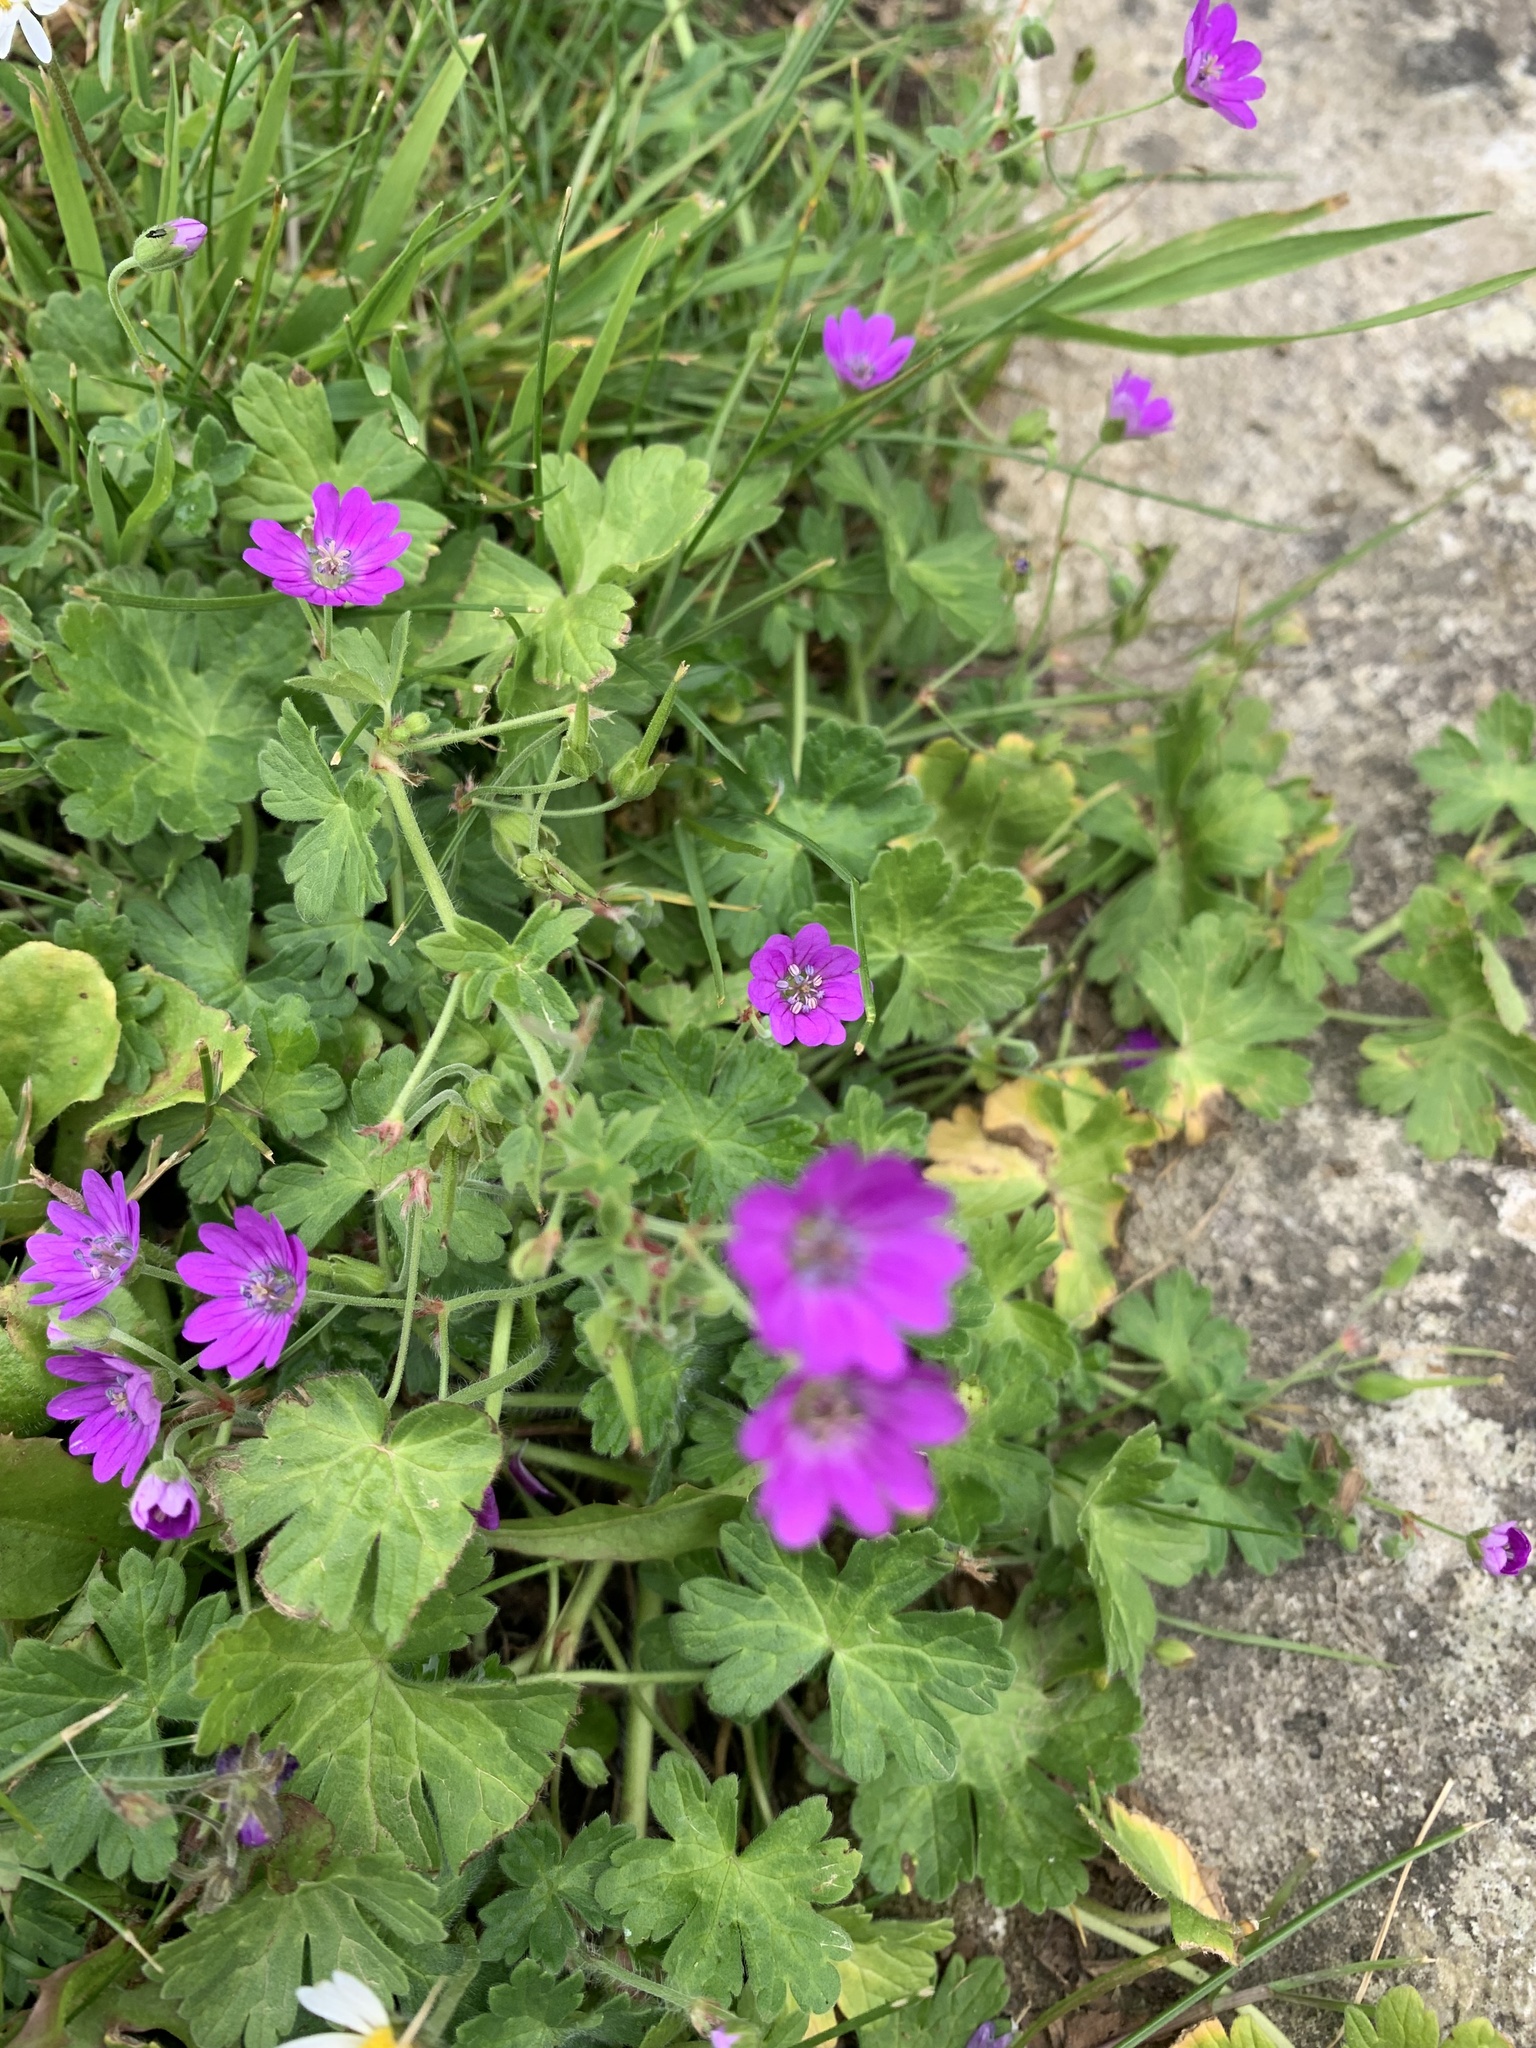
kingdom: Plantae
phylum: Tracheophyta
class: Magnoliopsida
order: Geraniales
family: Geraniaceae
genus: Geranium
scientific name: Geranium pyrenaicum
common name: Hedgerow crane's-bill
